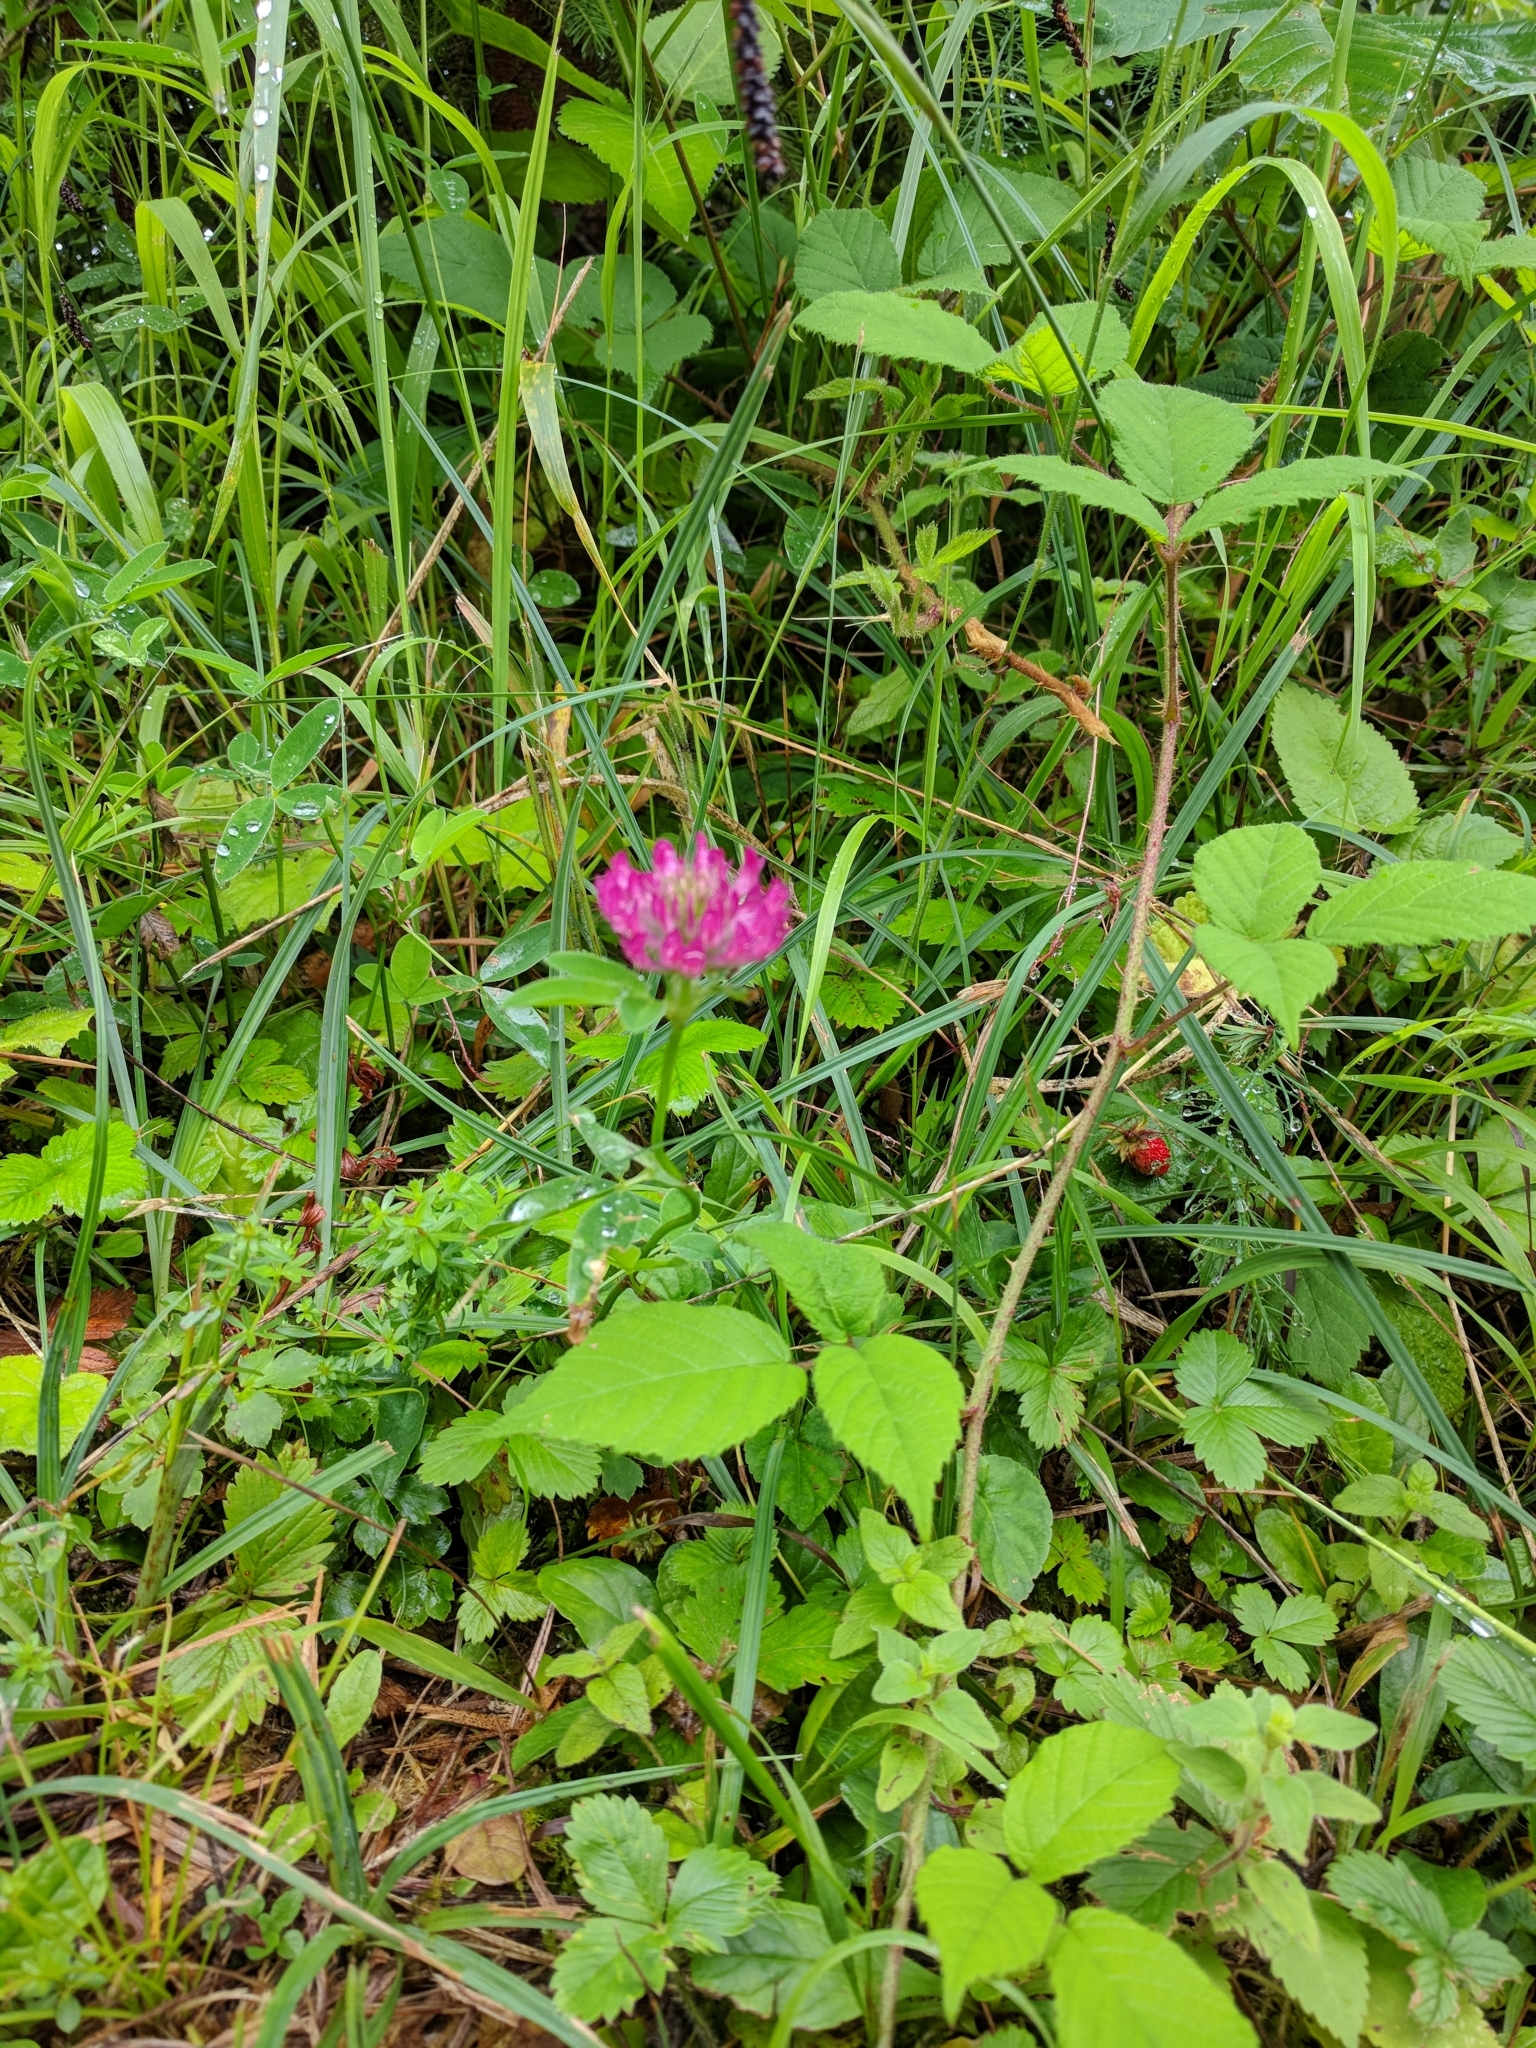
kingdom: Plantae
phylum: Tracheophyta
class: Magnoliopsida
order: Fabales
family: Fabaceae
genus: Trifolium
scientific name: Trifolium medium
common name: Zigzag clover
